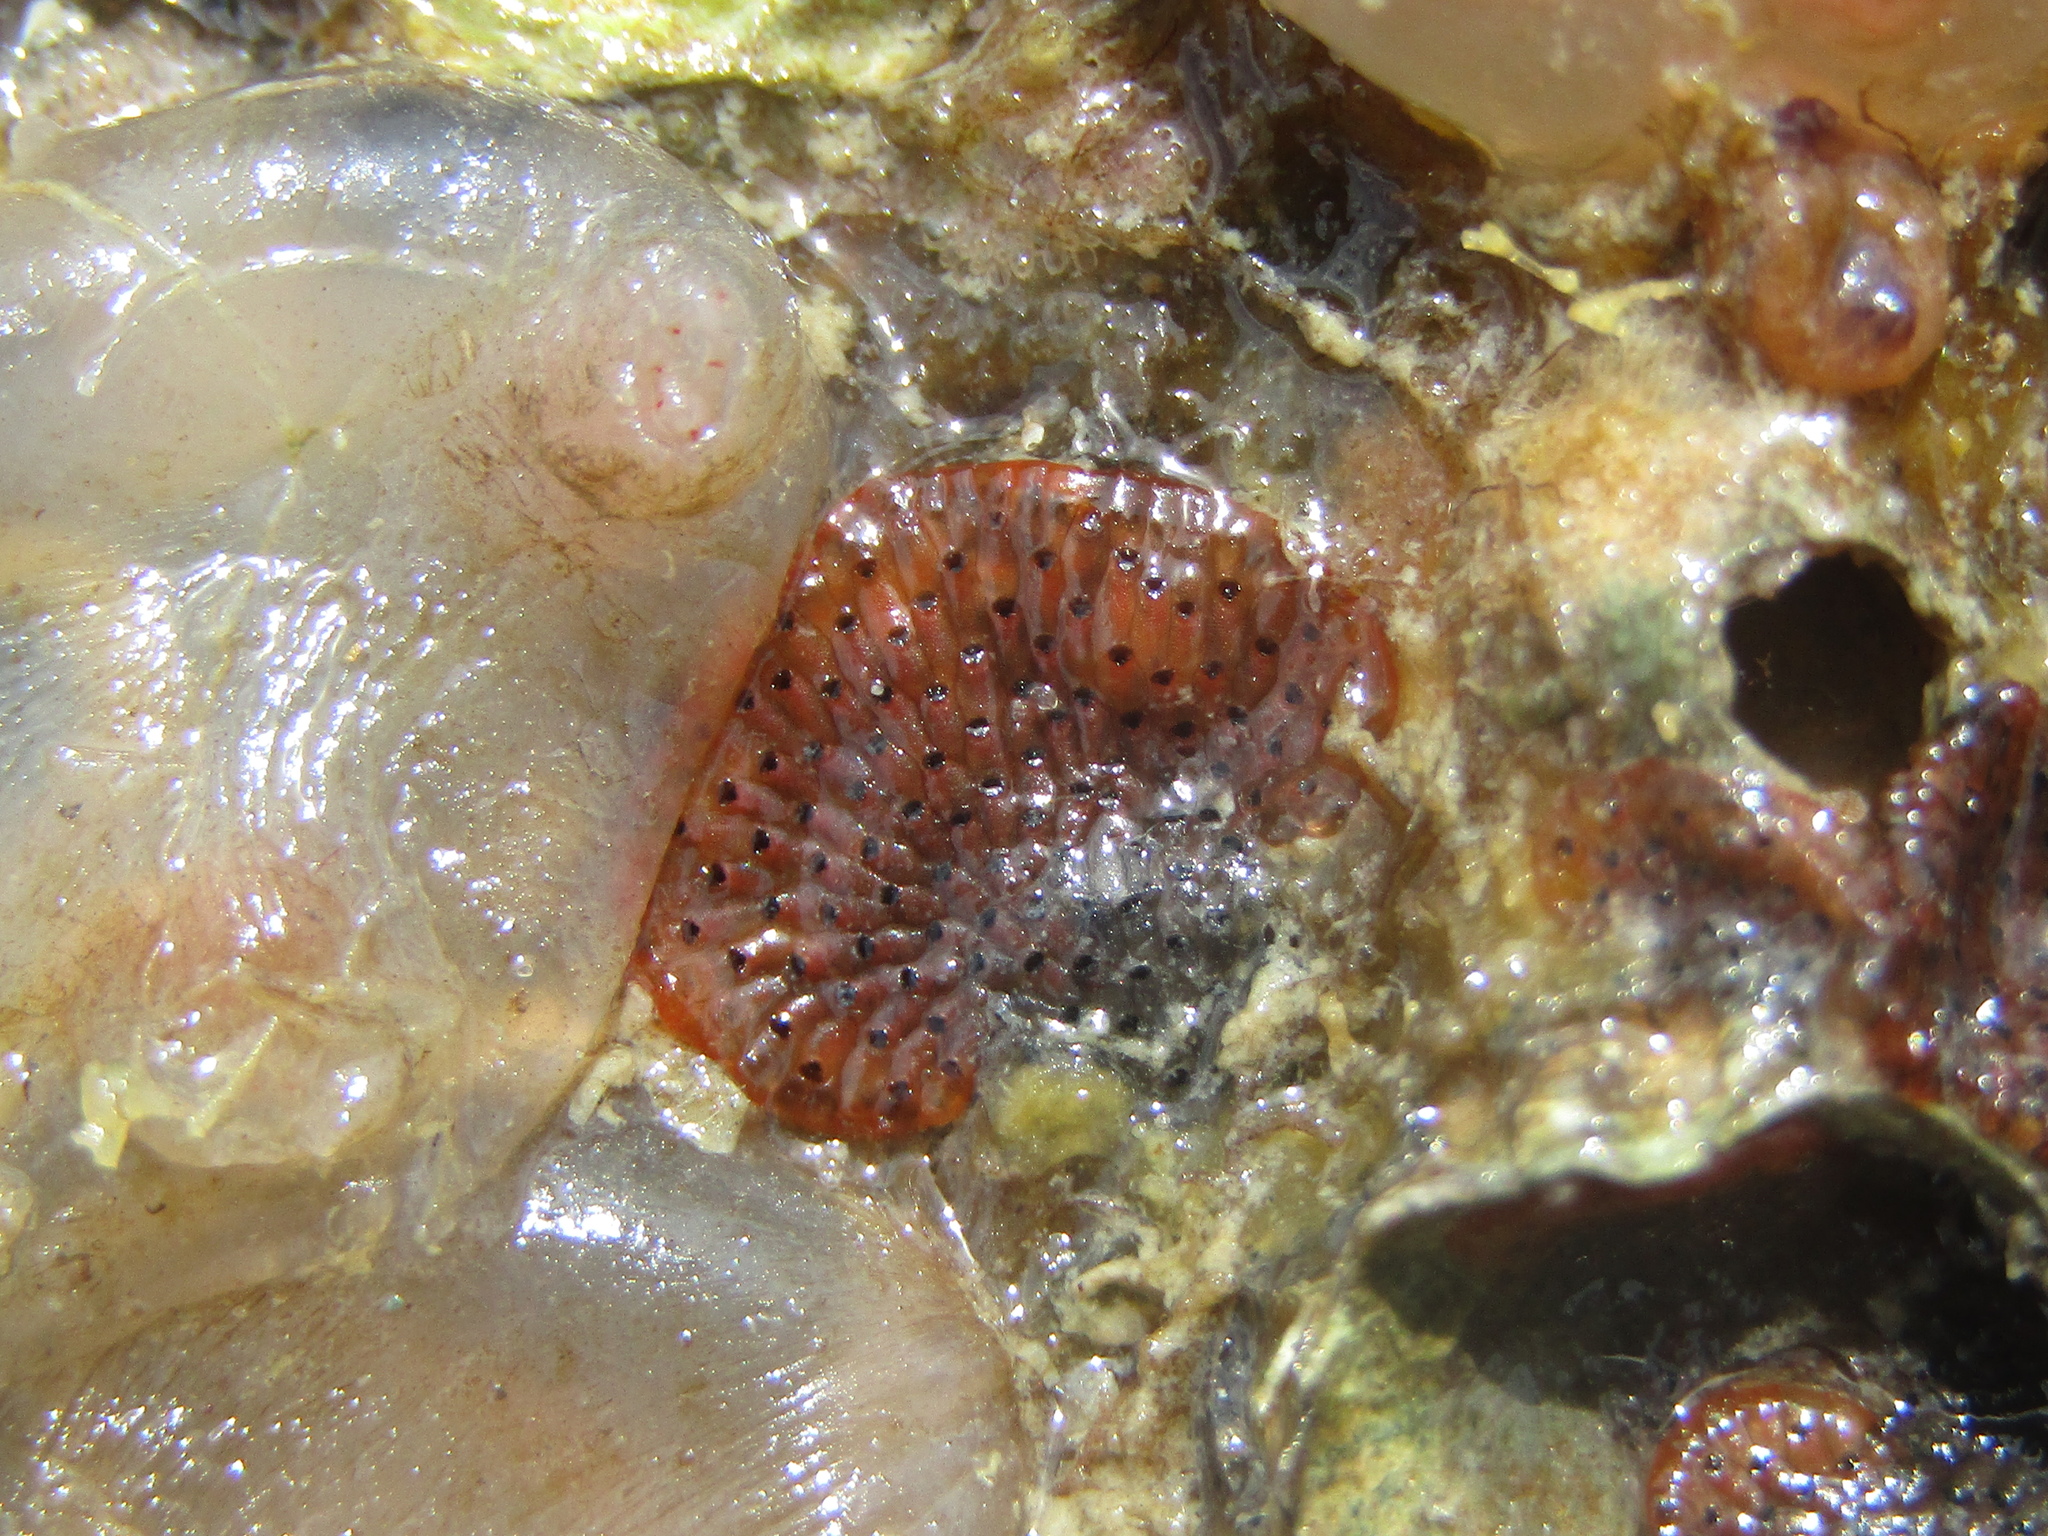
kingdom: Animalia
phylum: Bryozoa
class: Gymnolaemata
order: Cheilostomatida
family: Watersiporidae
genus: Watersipora
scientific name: Watersipora subatra
